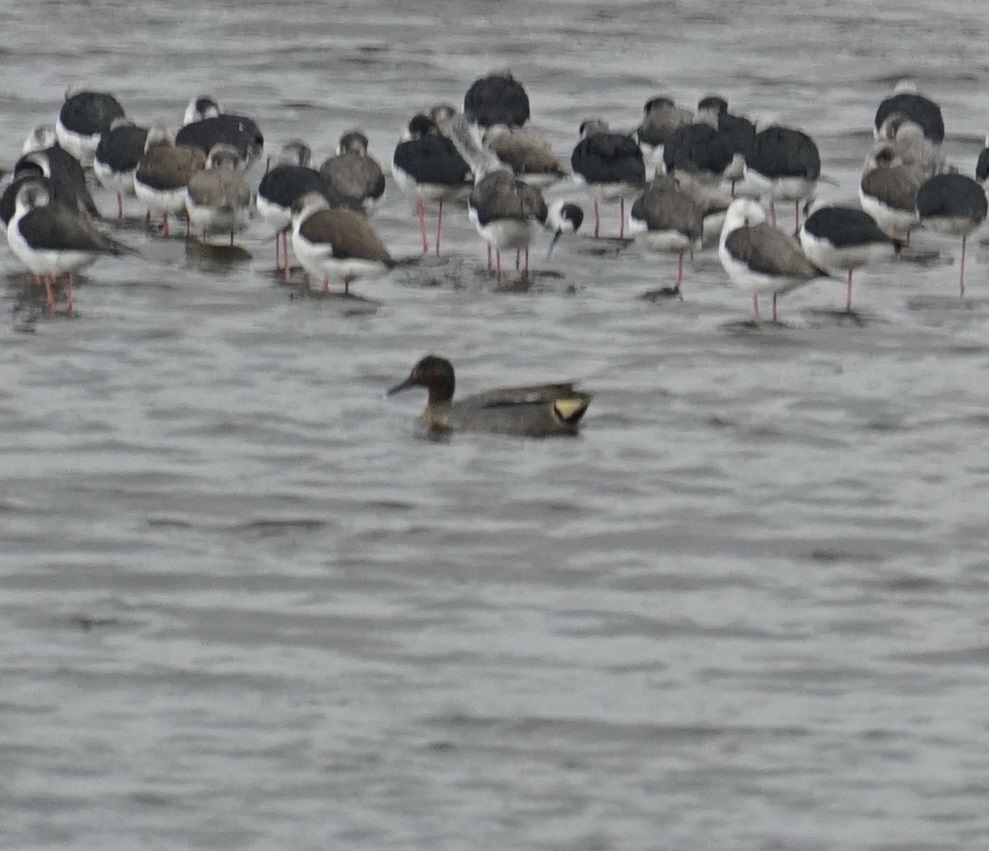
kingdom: Animalia
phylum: Chordata
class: Aves
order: Anseriformes
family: Anatidae
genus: Anas
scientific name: Anas crecca
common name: Eurasian teal
